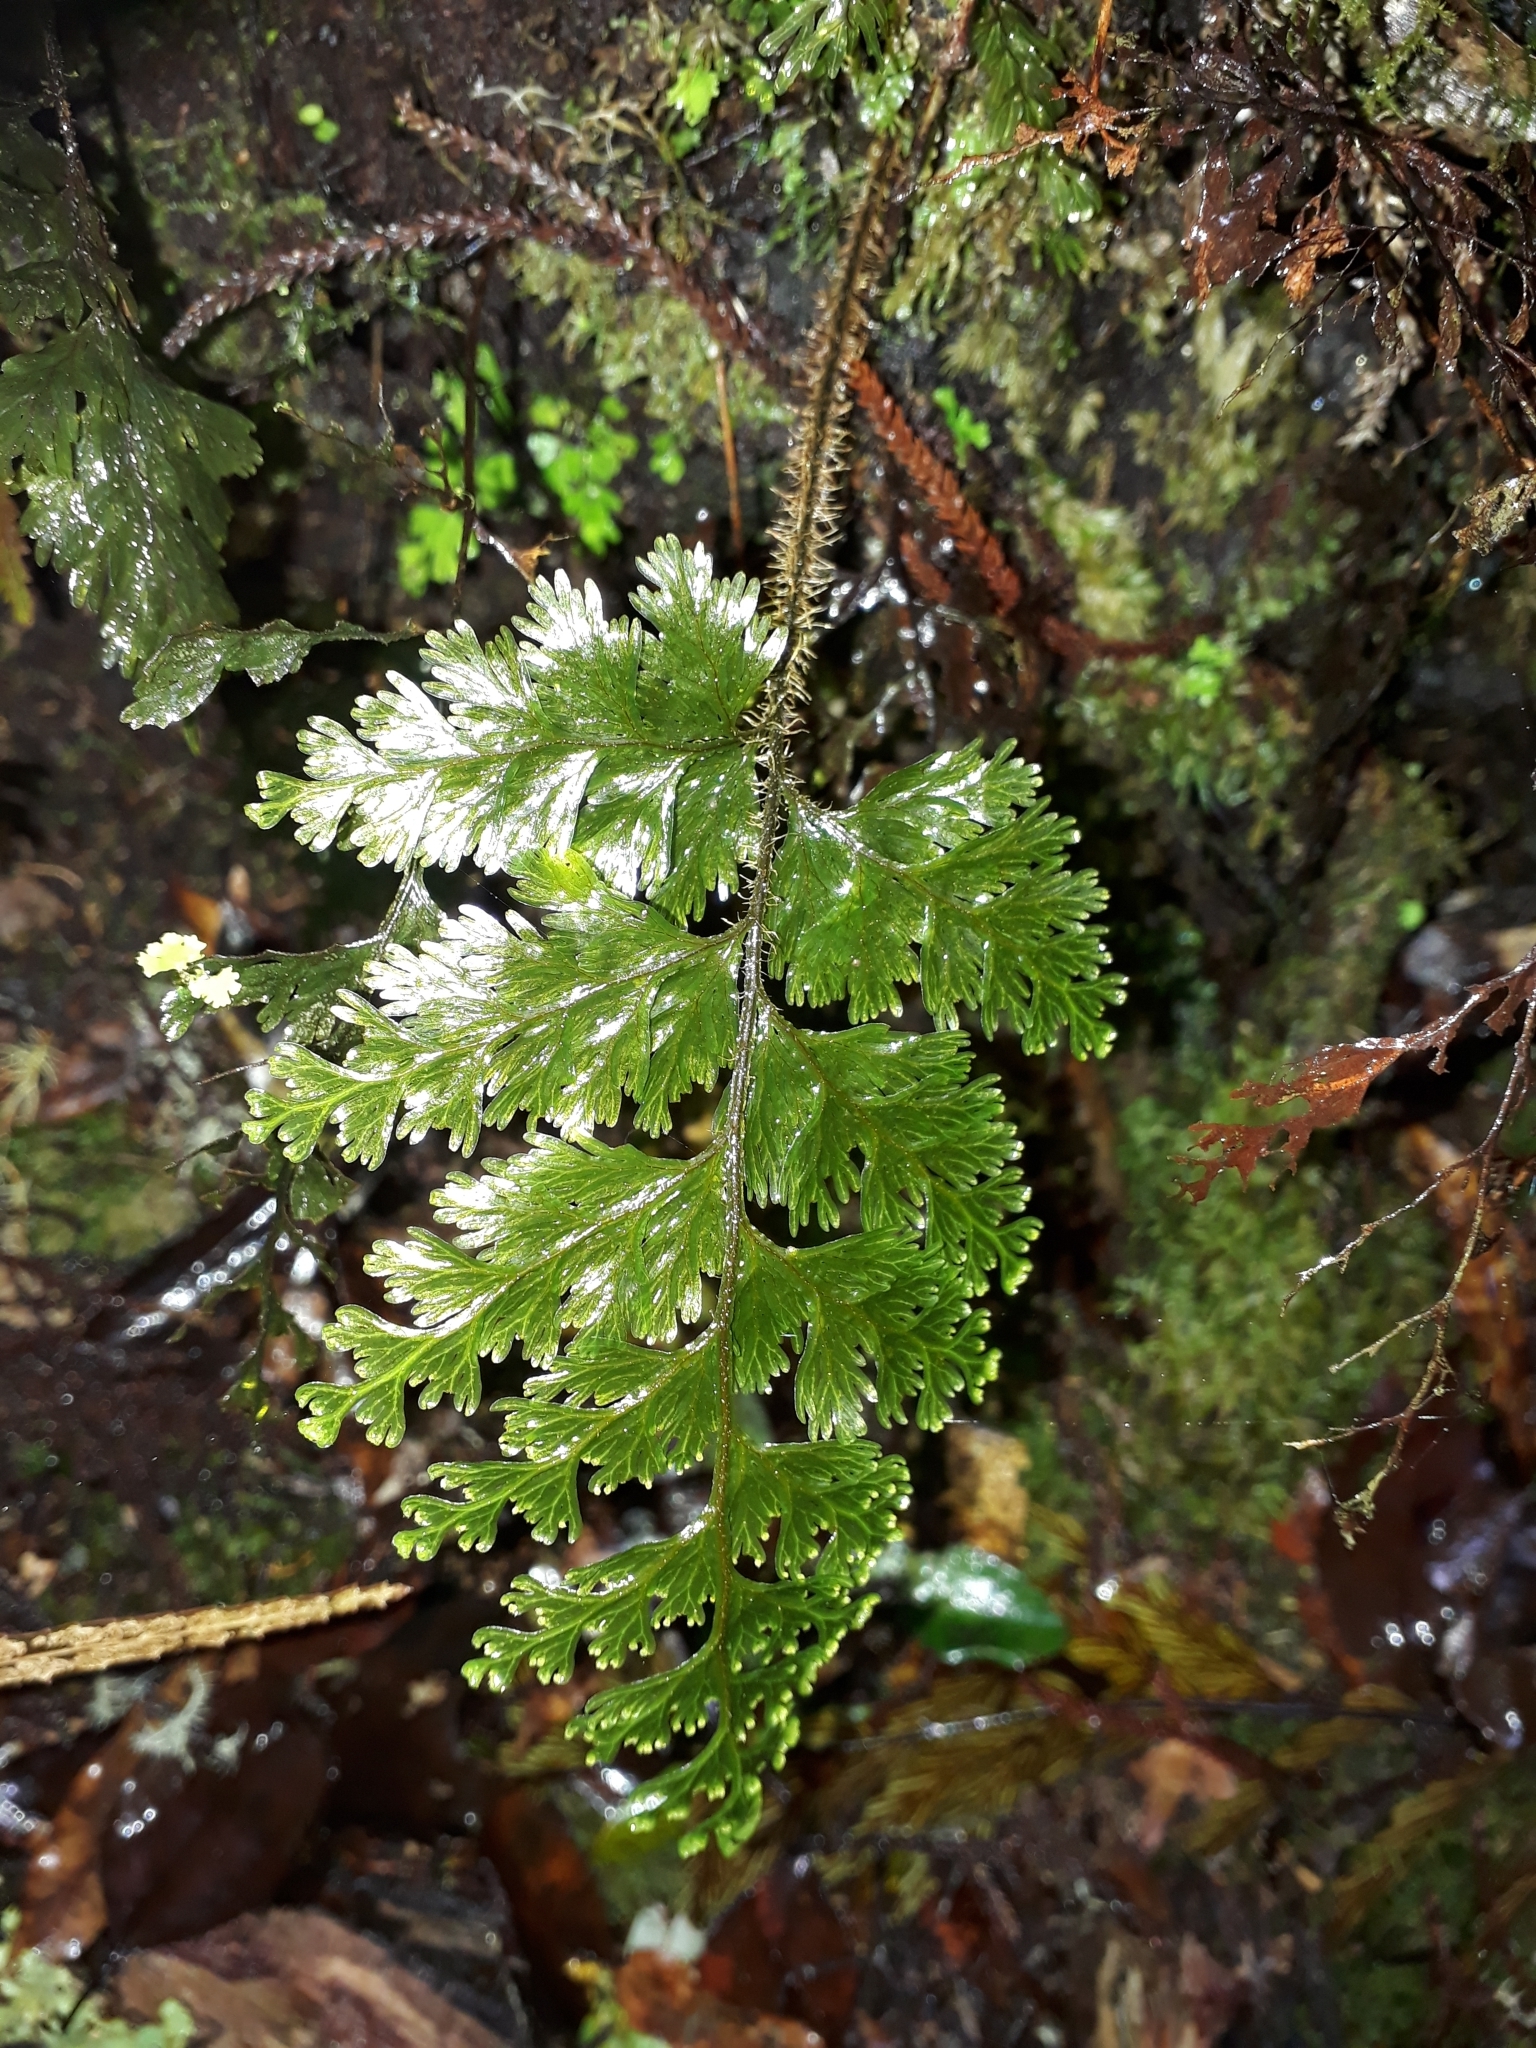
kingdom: Plantae
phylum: Tracheophyta
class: Polypodiopsida
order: Hymenophyllales
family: Hymenophyllaceae
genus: Hymenophyllum
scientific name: Hymenophyllum scabrum
